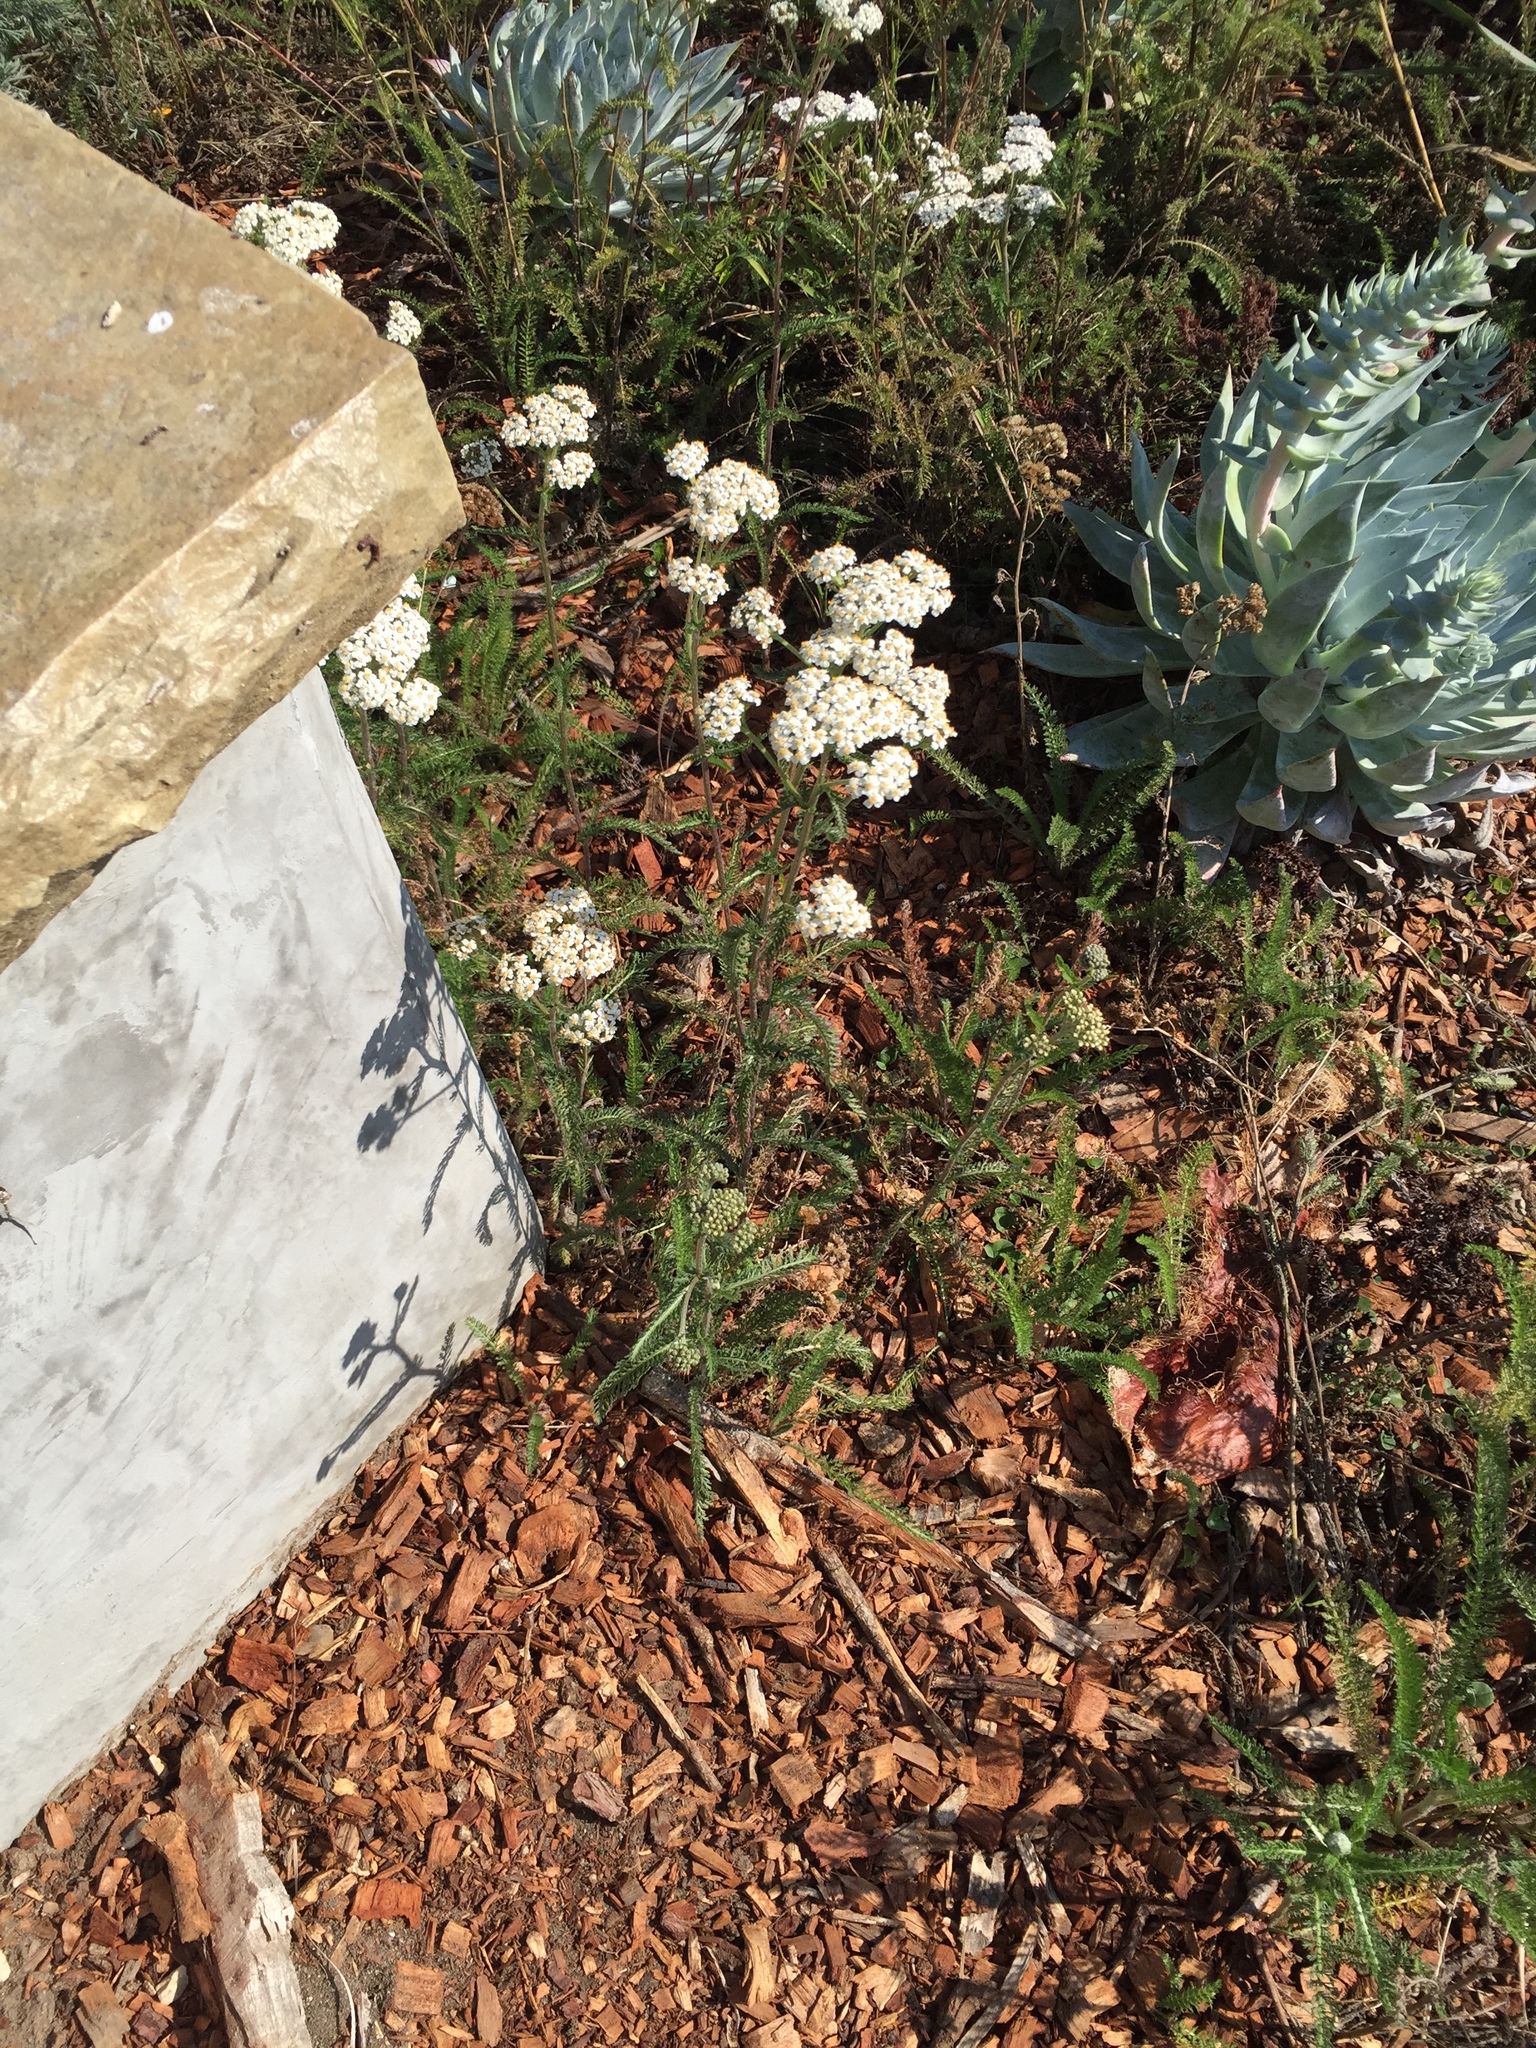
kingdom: Plantae
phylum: Tracheophyta
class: Magnoliopsida
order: Asterales
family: Asteraceae
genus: Achillea
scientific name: Achillea millefolium
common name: Yarrow
